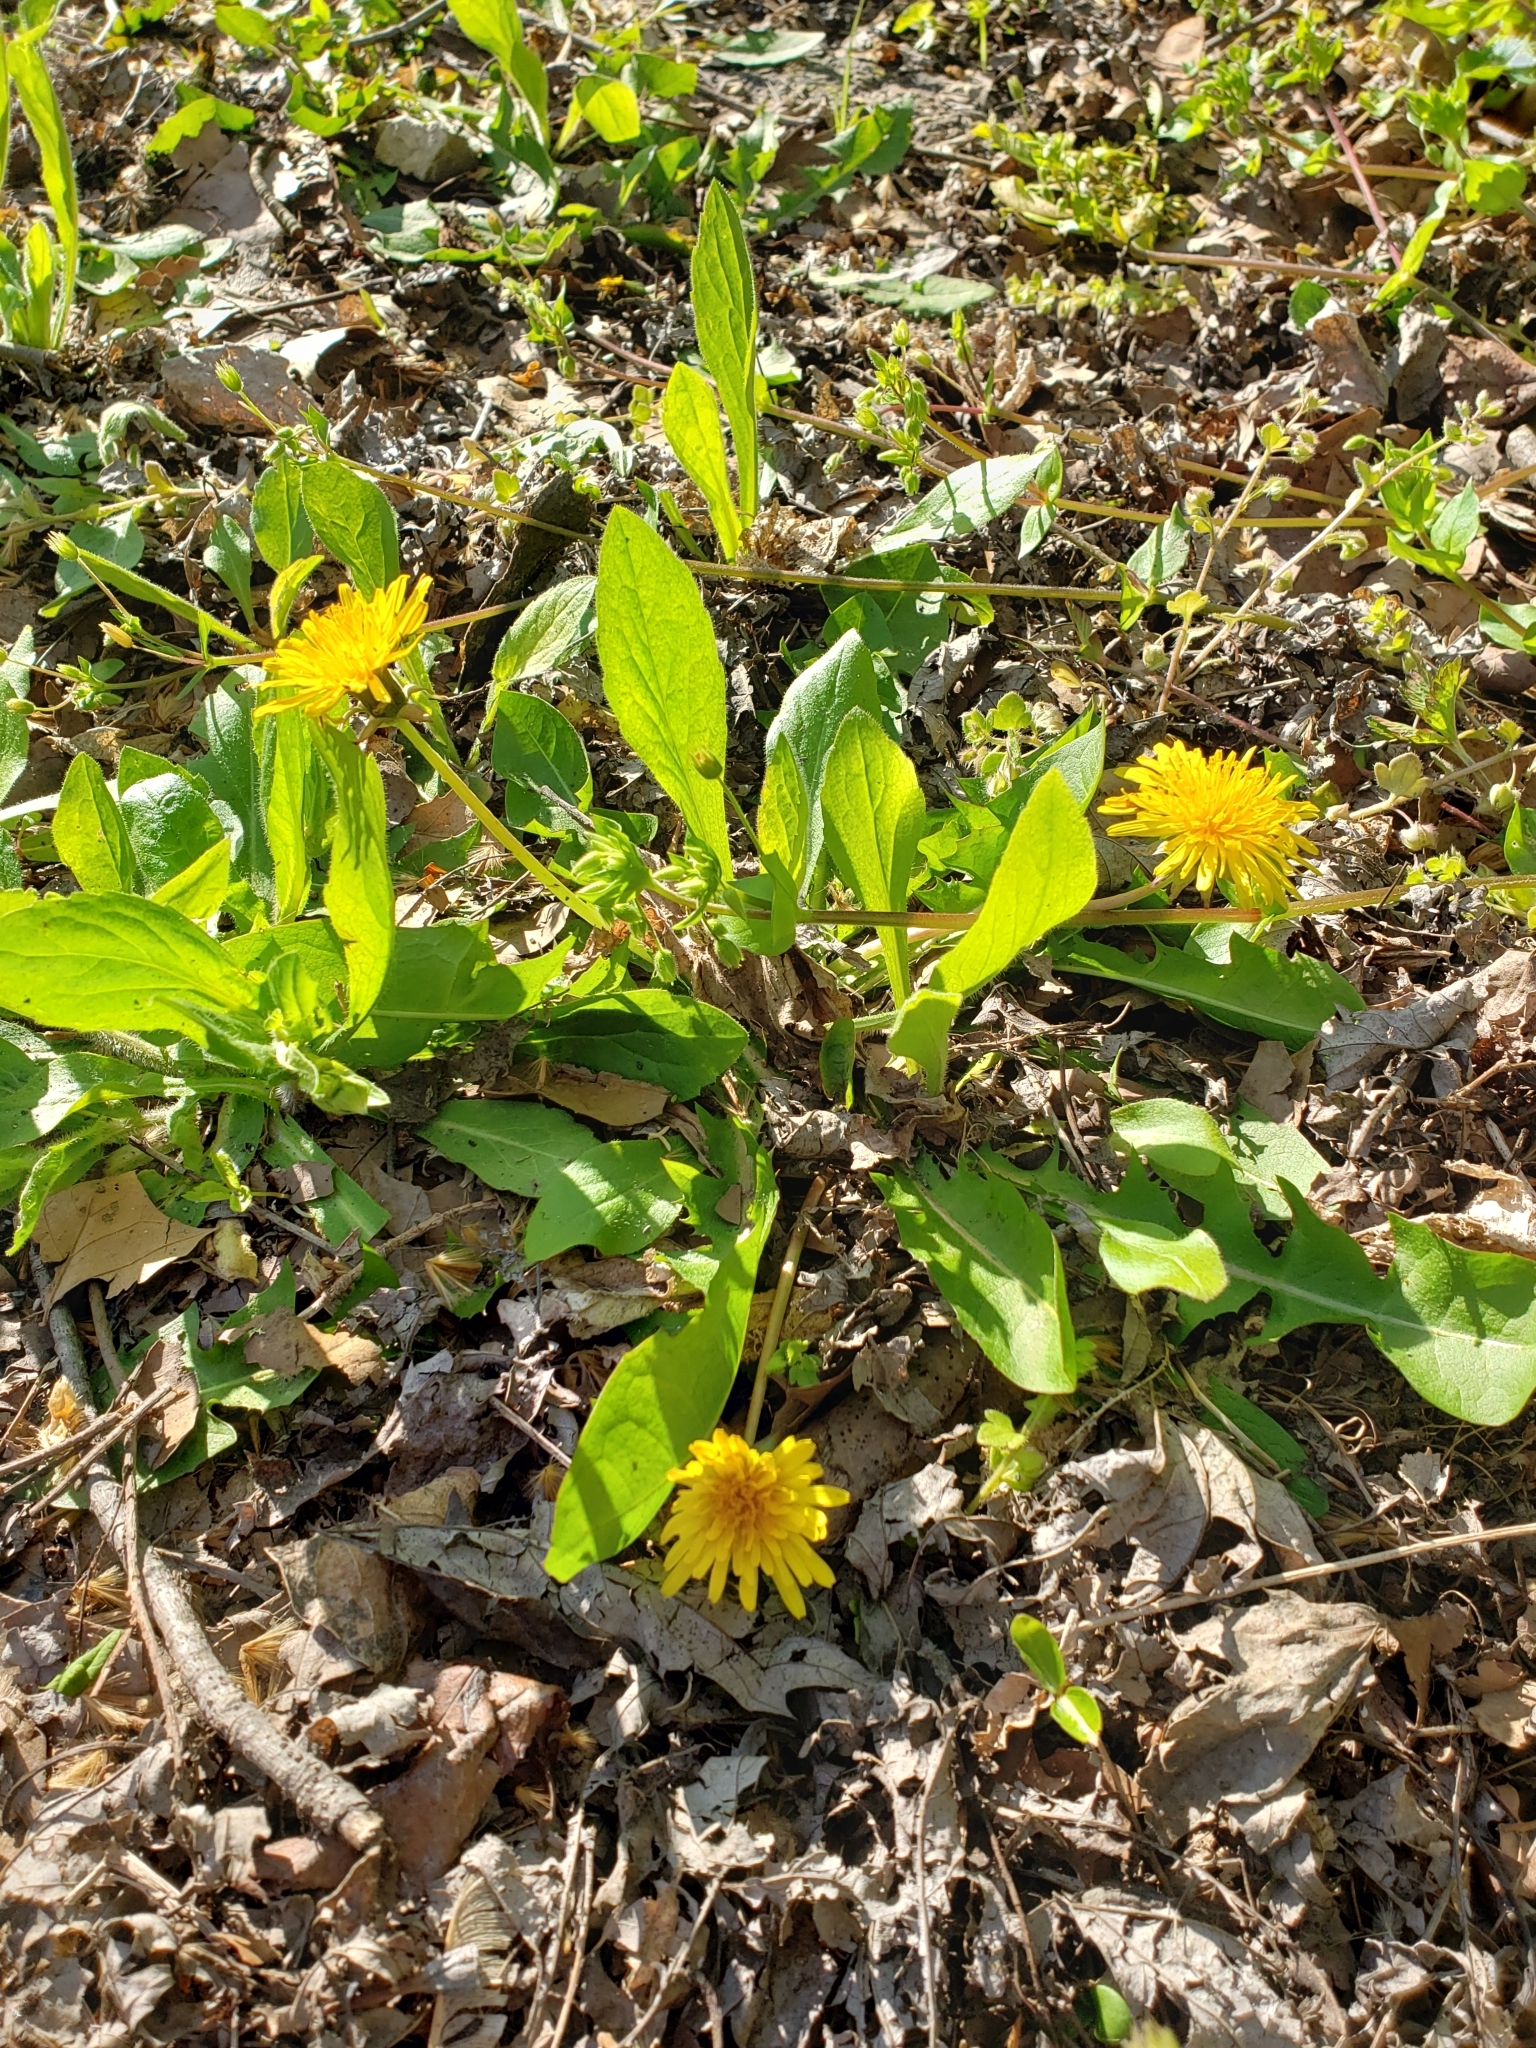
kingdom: Plantae
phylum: Tracheophyta
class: Magnoliopsida
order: Asterales
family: Asteraceae
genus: Taraxacum
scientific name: Taraxacum officinale
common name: Common dandelion
